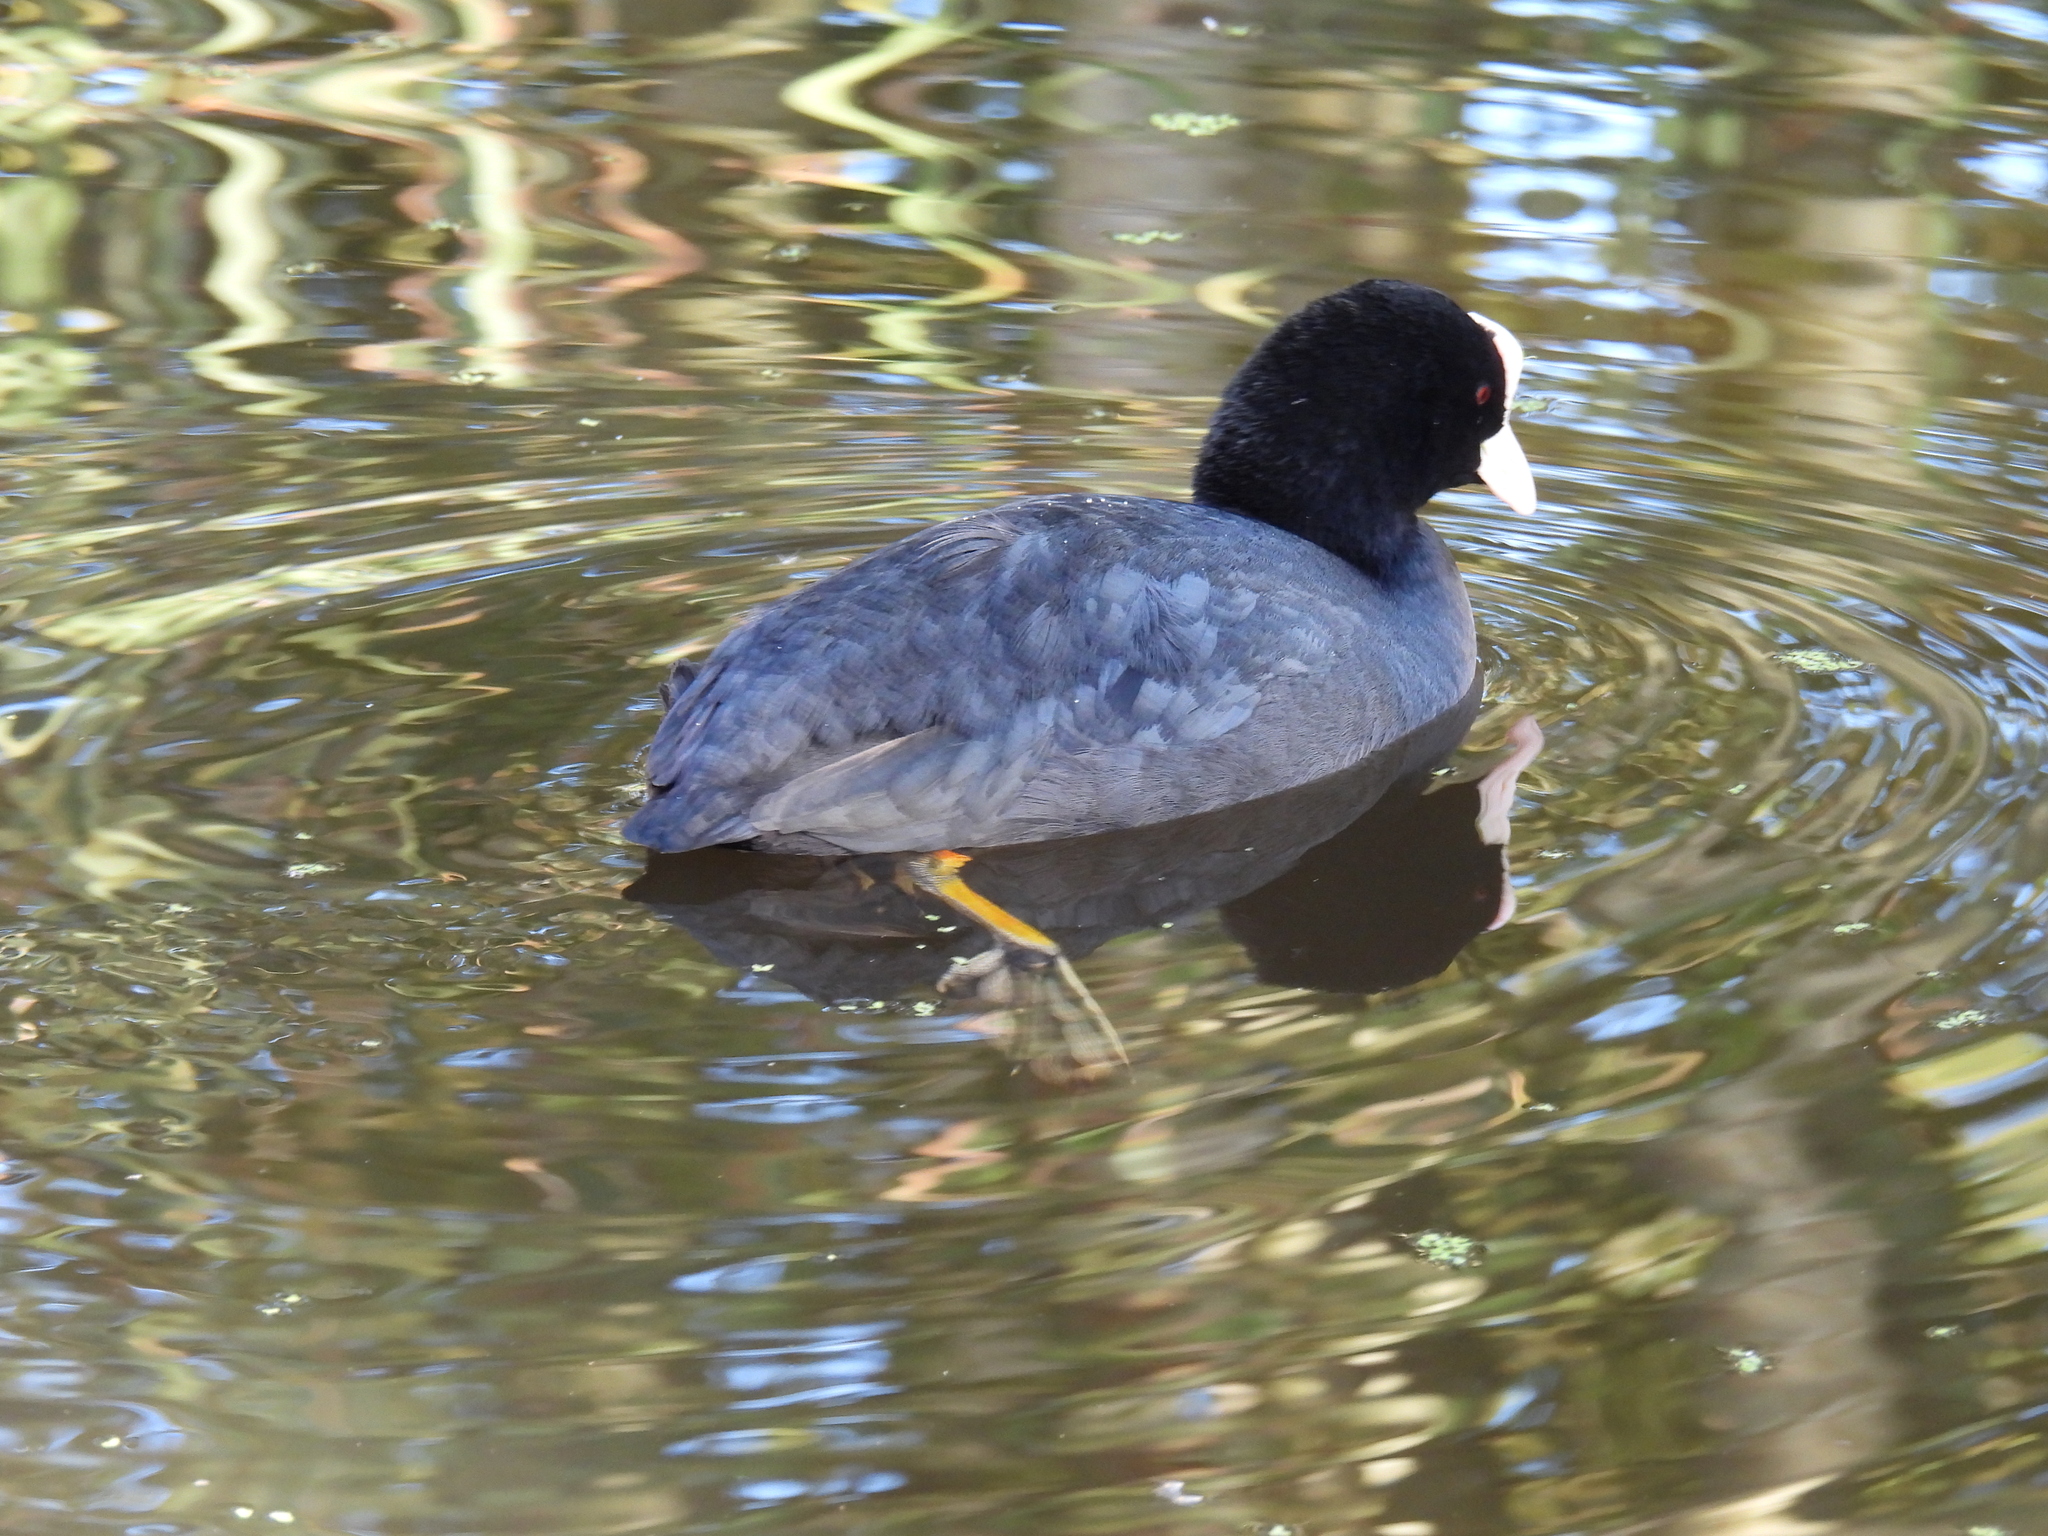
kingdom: Animalia
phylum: Chordata
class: Aves
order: Gruiformes
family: Rallidae
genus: Fulica
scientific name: Fulica atra
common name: Eurasian coot
